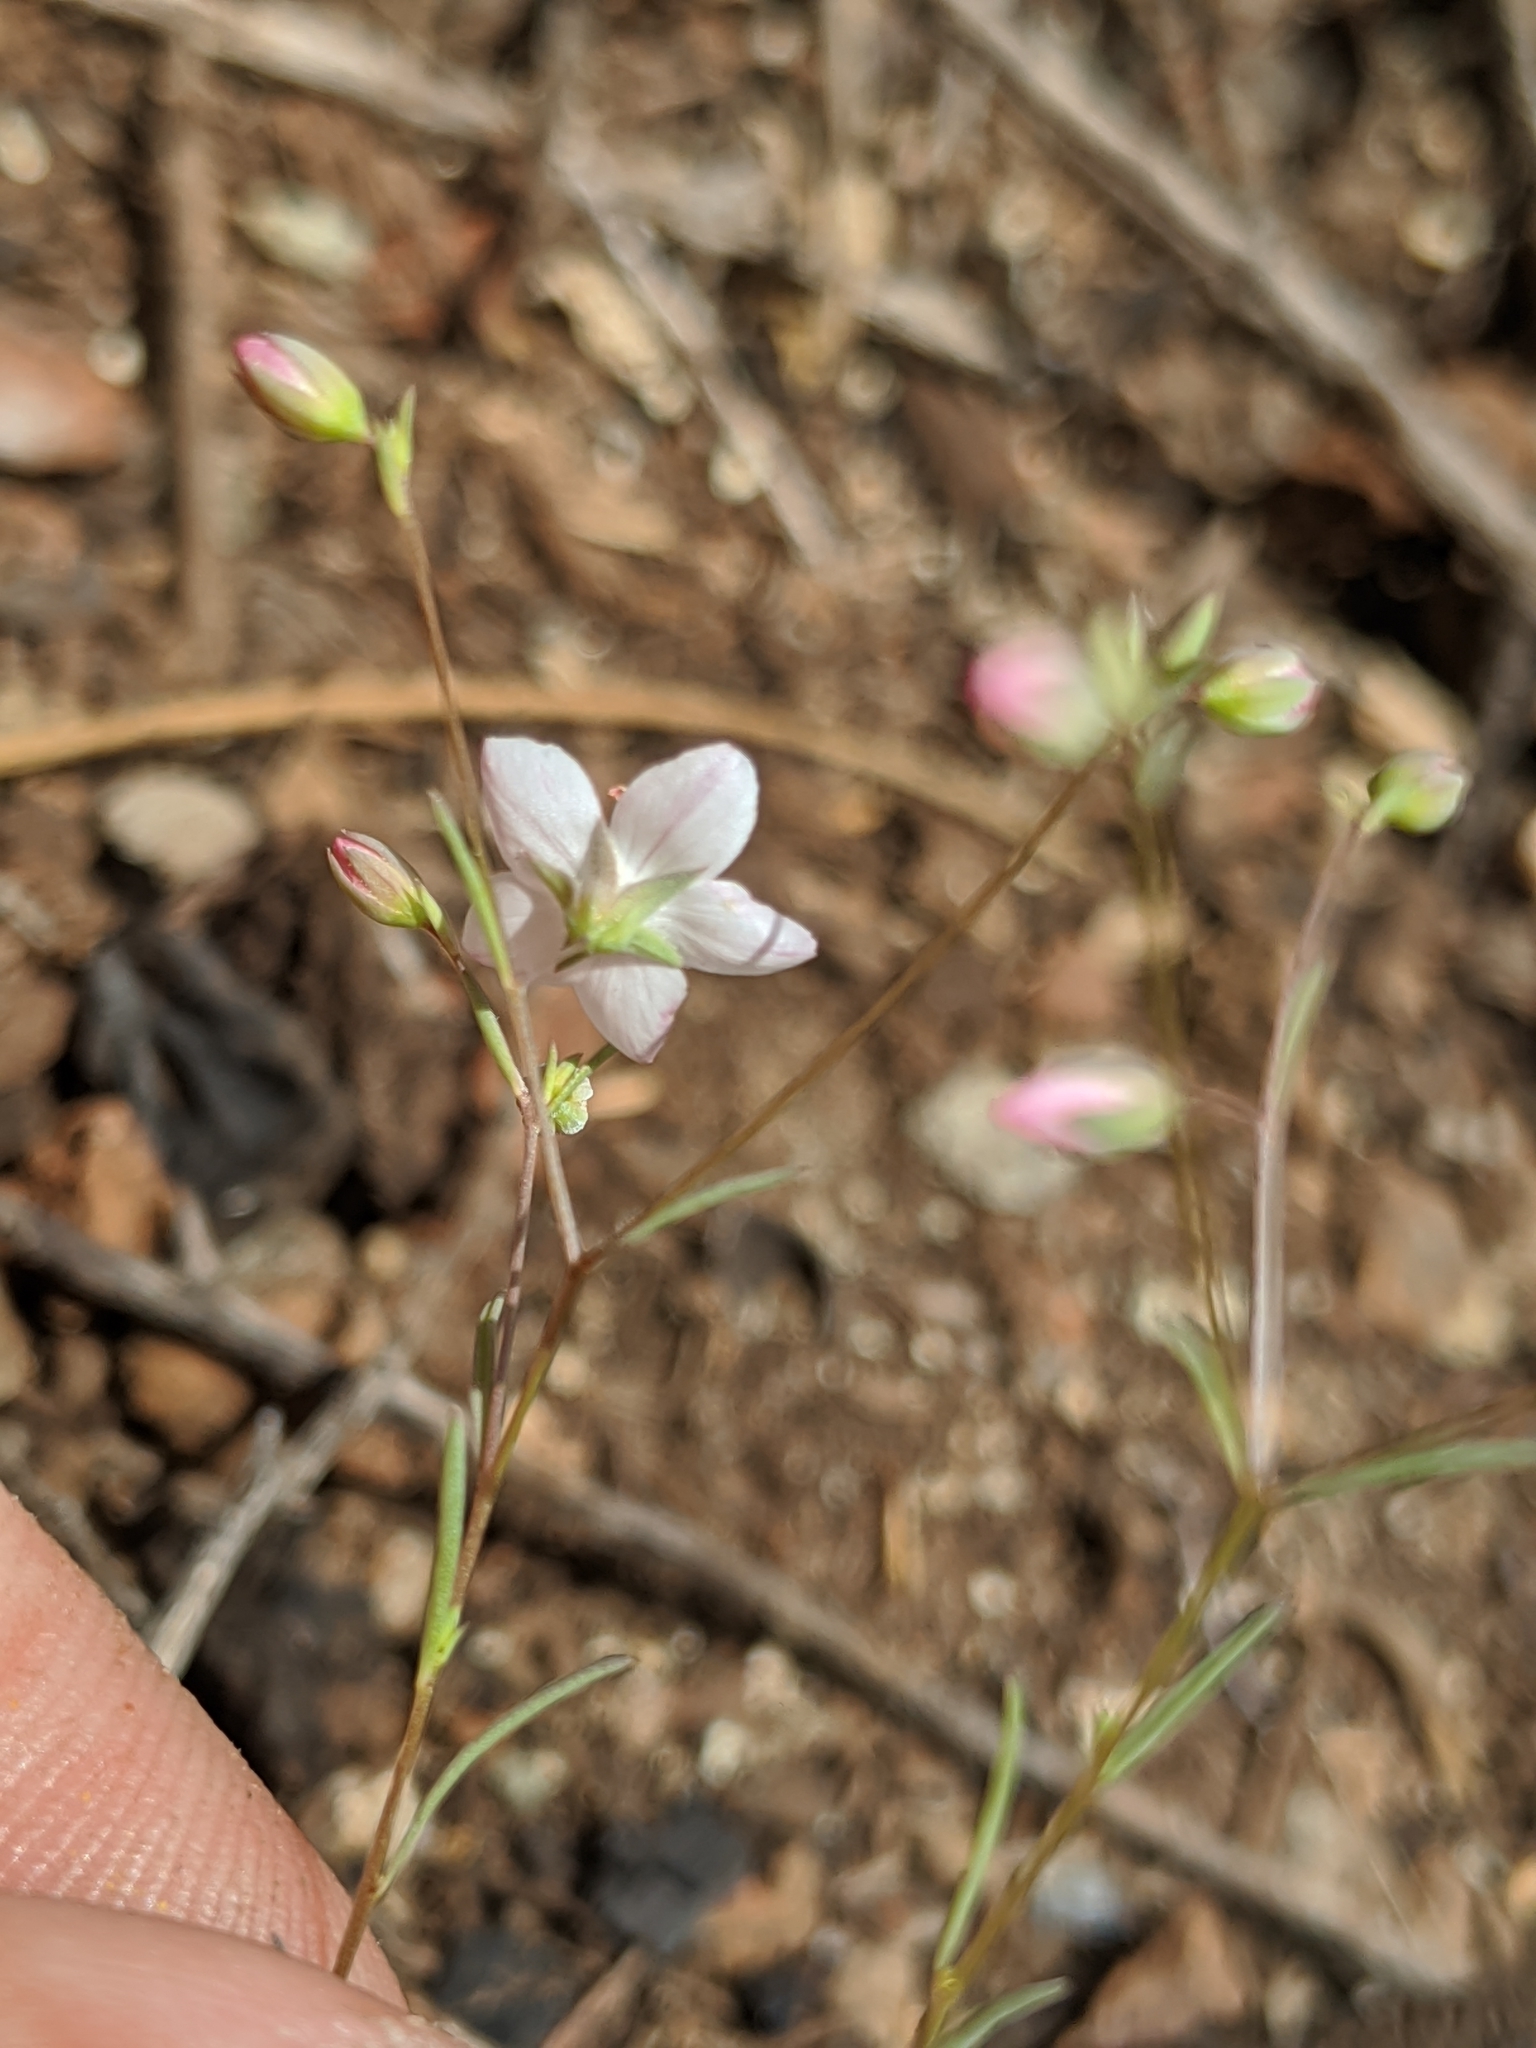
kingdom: Plantae
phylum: Tracheophyta
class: Magnoliopsida
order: Malpighiales
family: Linaceae
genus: Hesperolinon
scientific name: Hesperolinon disjunctum
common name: Coast range dwarf-flax
